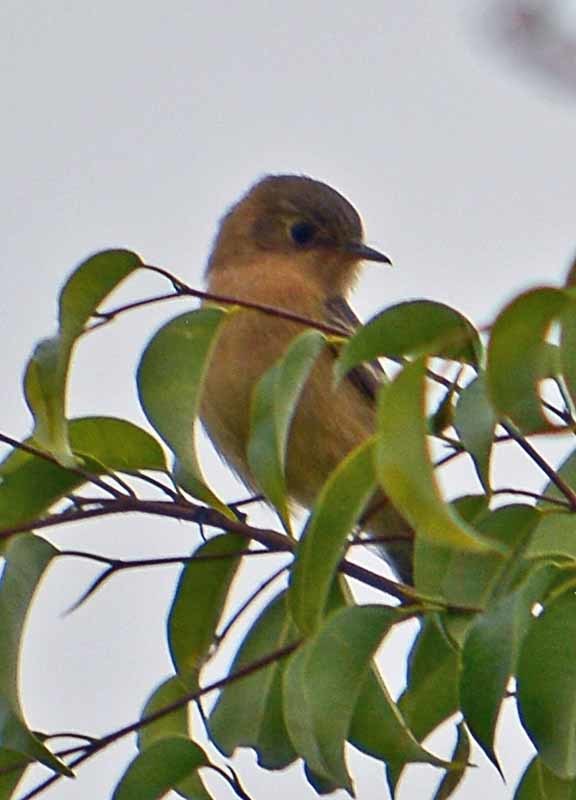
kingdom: Animalia
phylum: Chordata
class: Aves
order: Passeriformes
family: Tyrannidae
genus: Empidonax
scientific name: Empidonax fulvifrons
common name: Buff-breasted flycatcher
